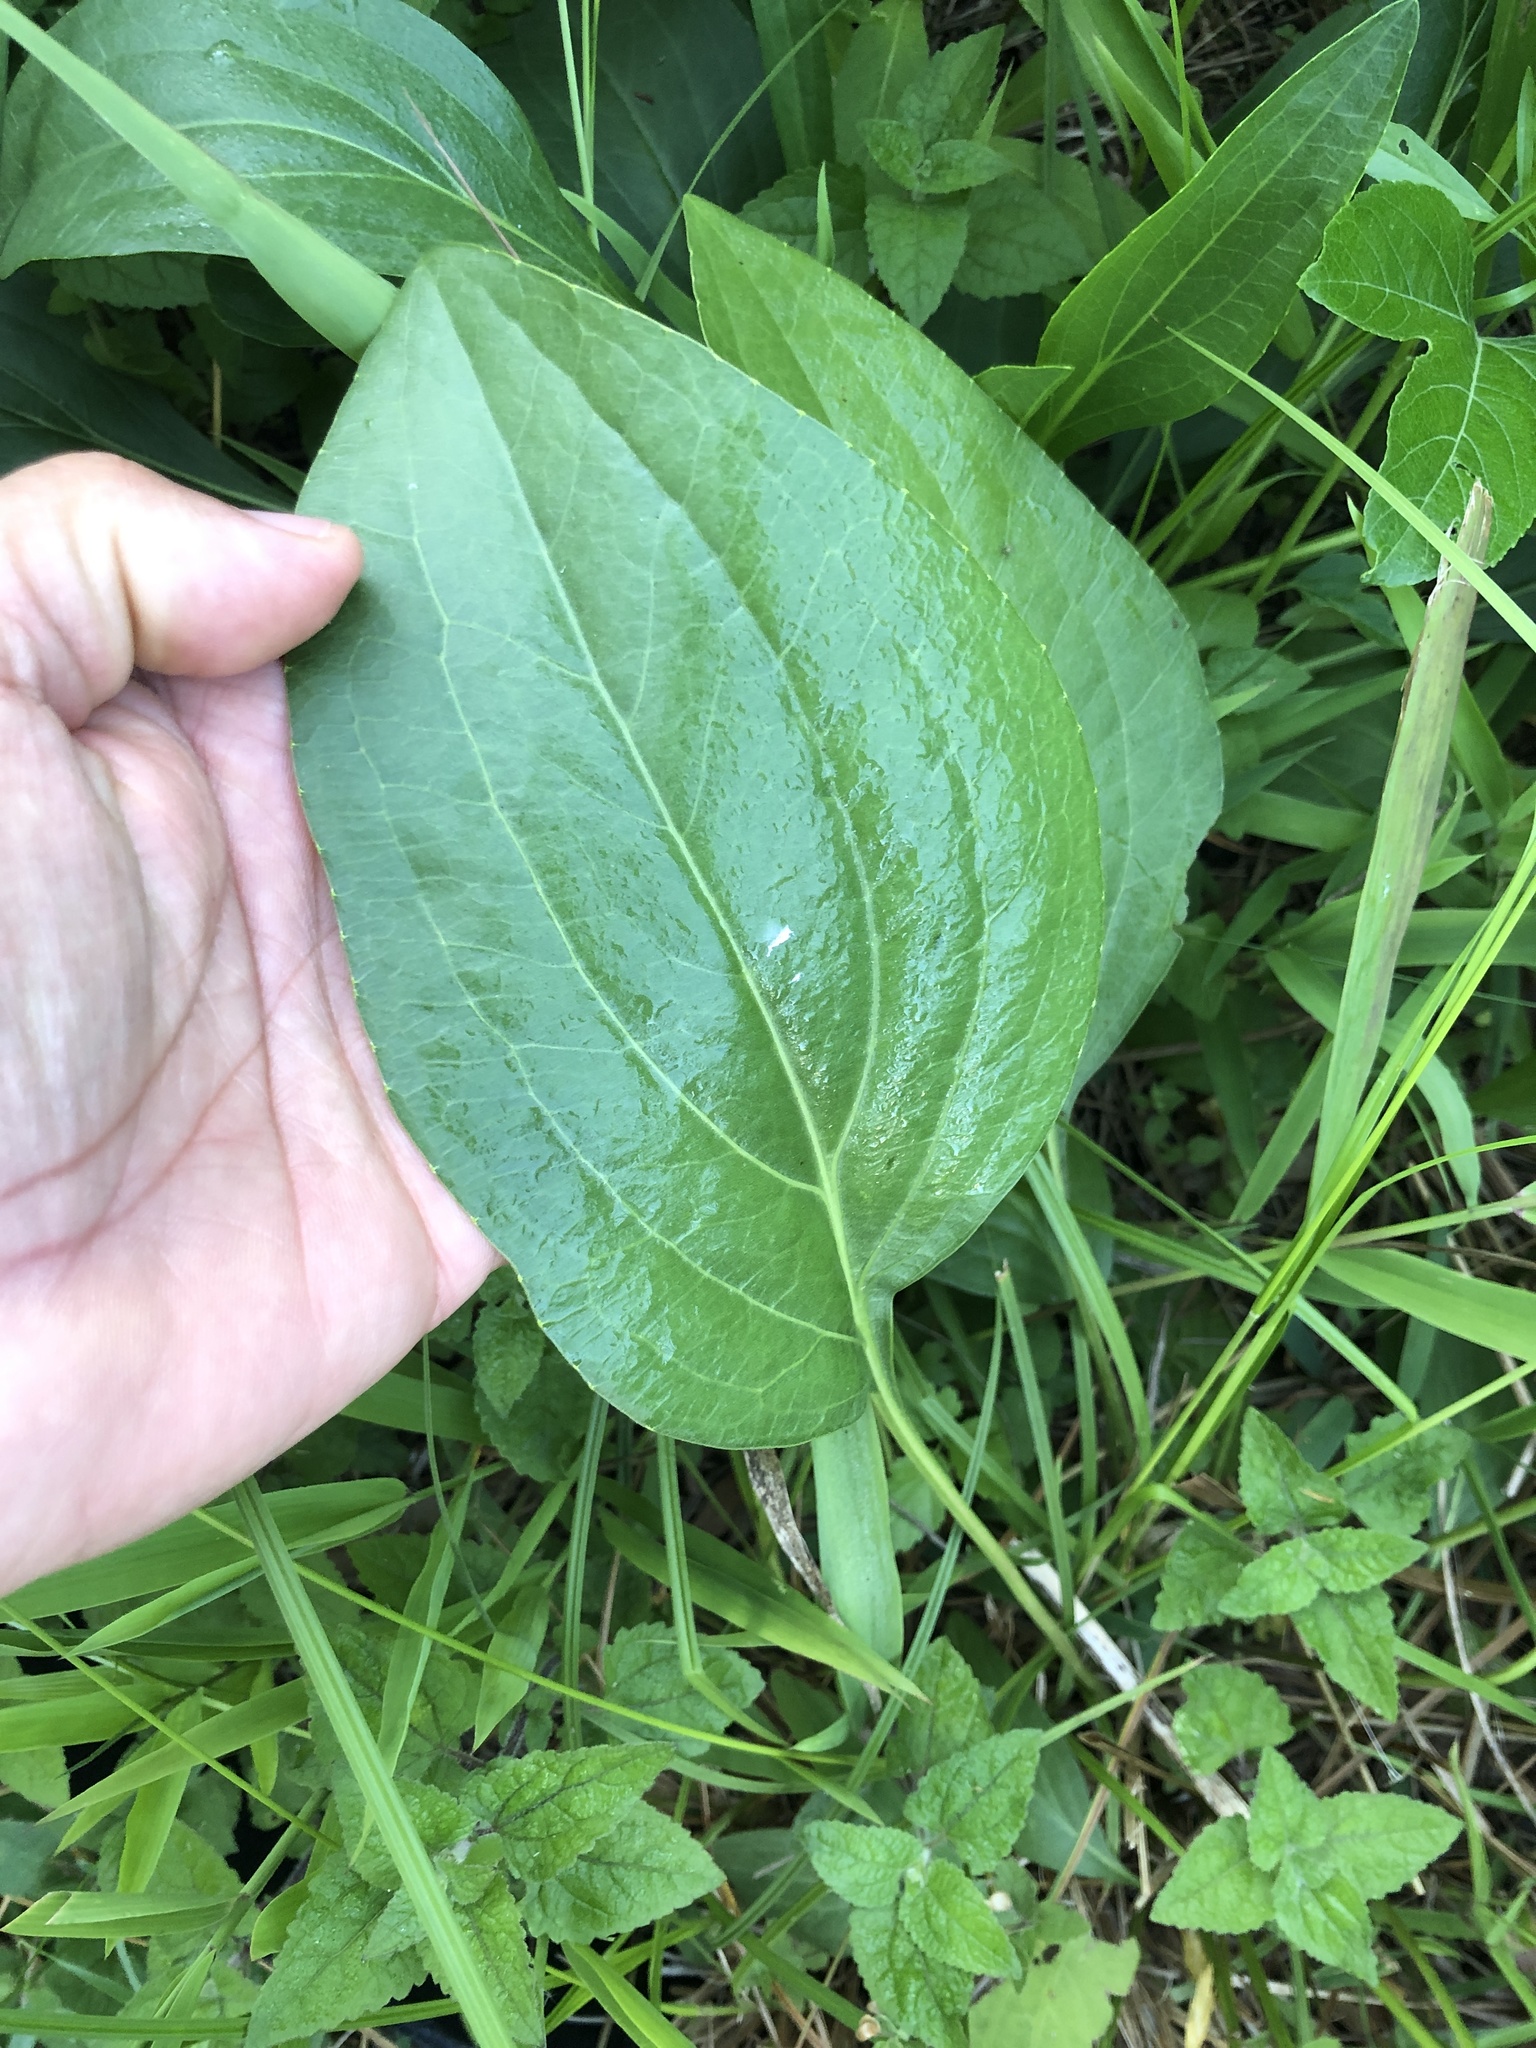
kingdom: Plantae
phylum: Tracheophyta
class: Magnoliopsida
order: Asterales
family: Asteraceae
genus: Rudbeckia
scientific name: Rudbeckia texana
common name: Texas coneflower
